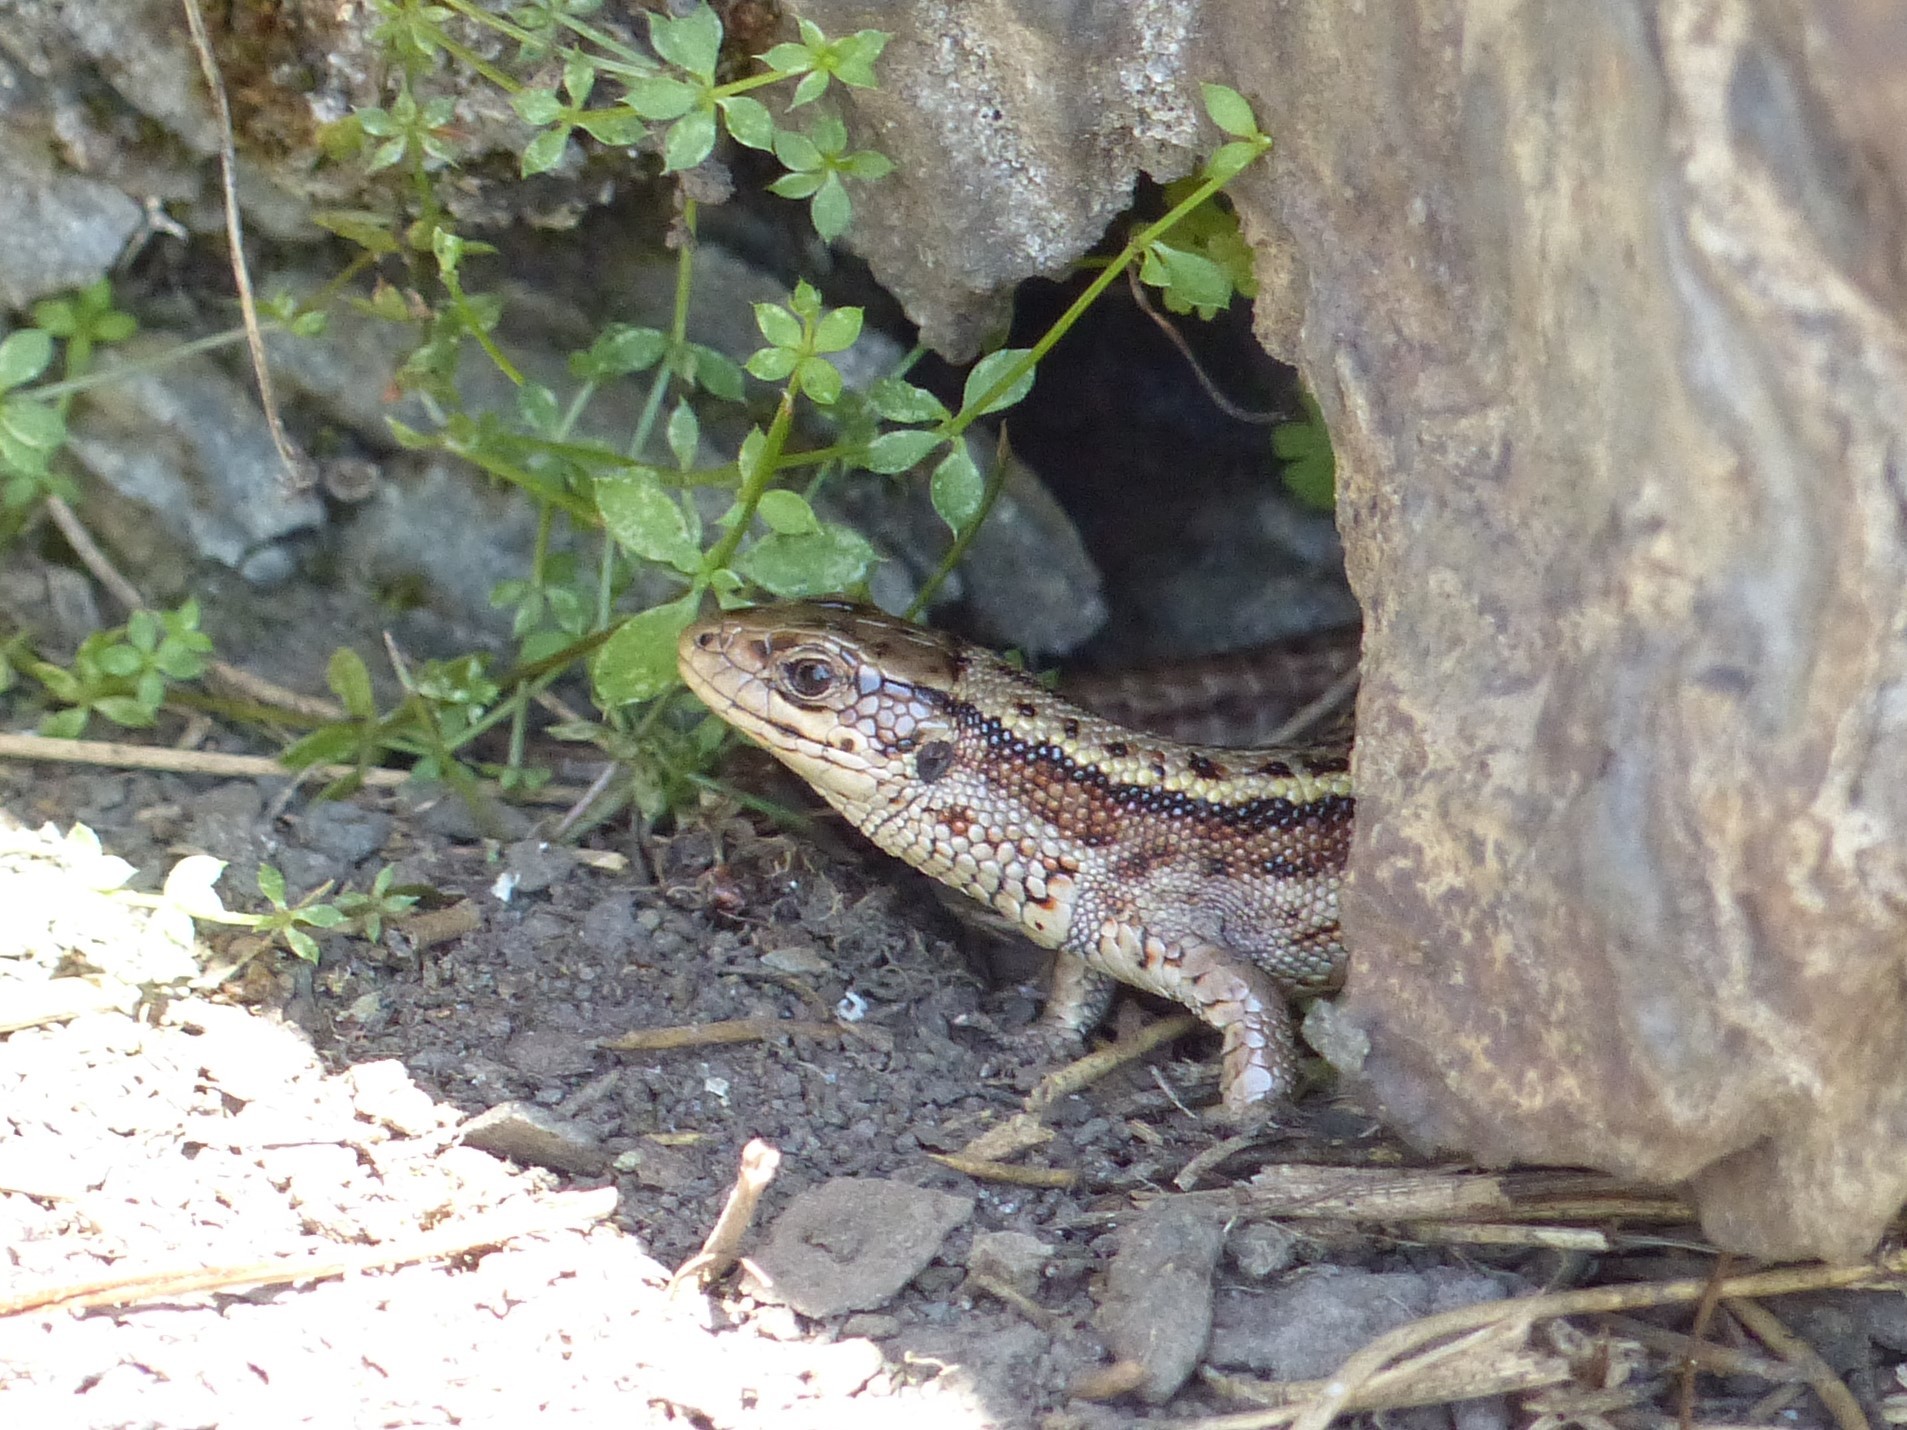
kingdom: Animalia
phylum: Chordata
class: Squamata
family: Lacertidae
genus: Zootoca
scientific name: Zootoca vivipara
